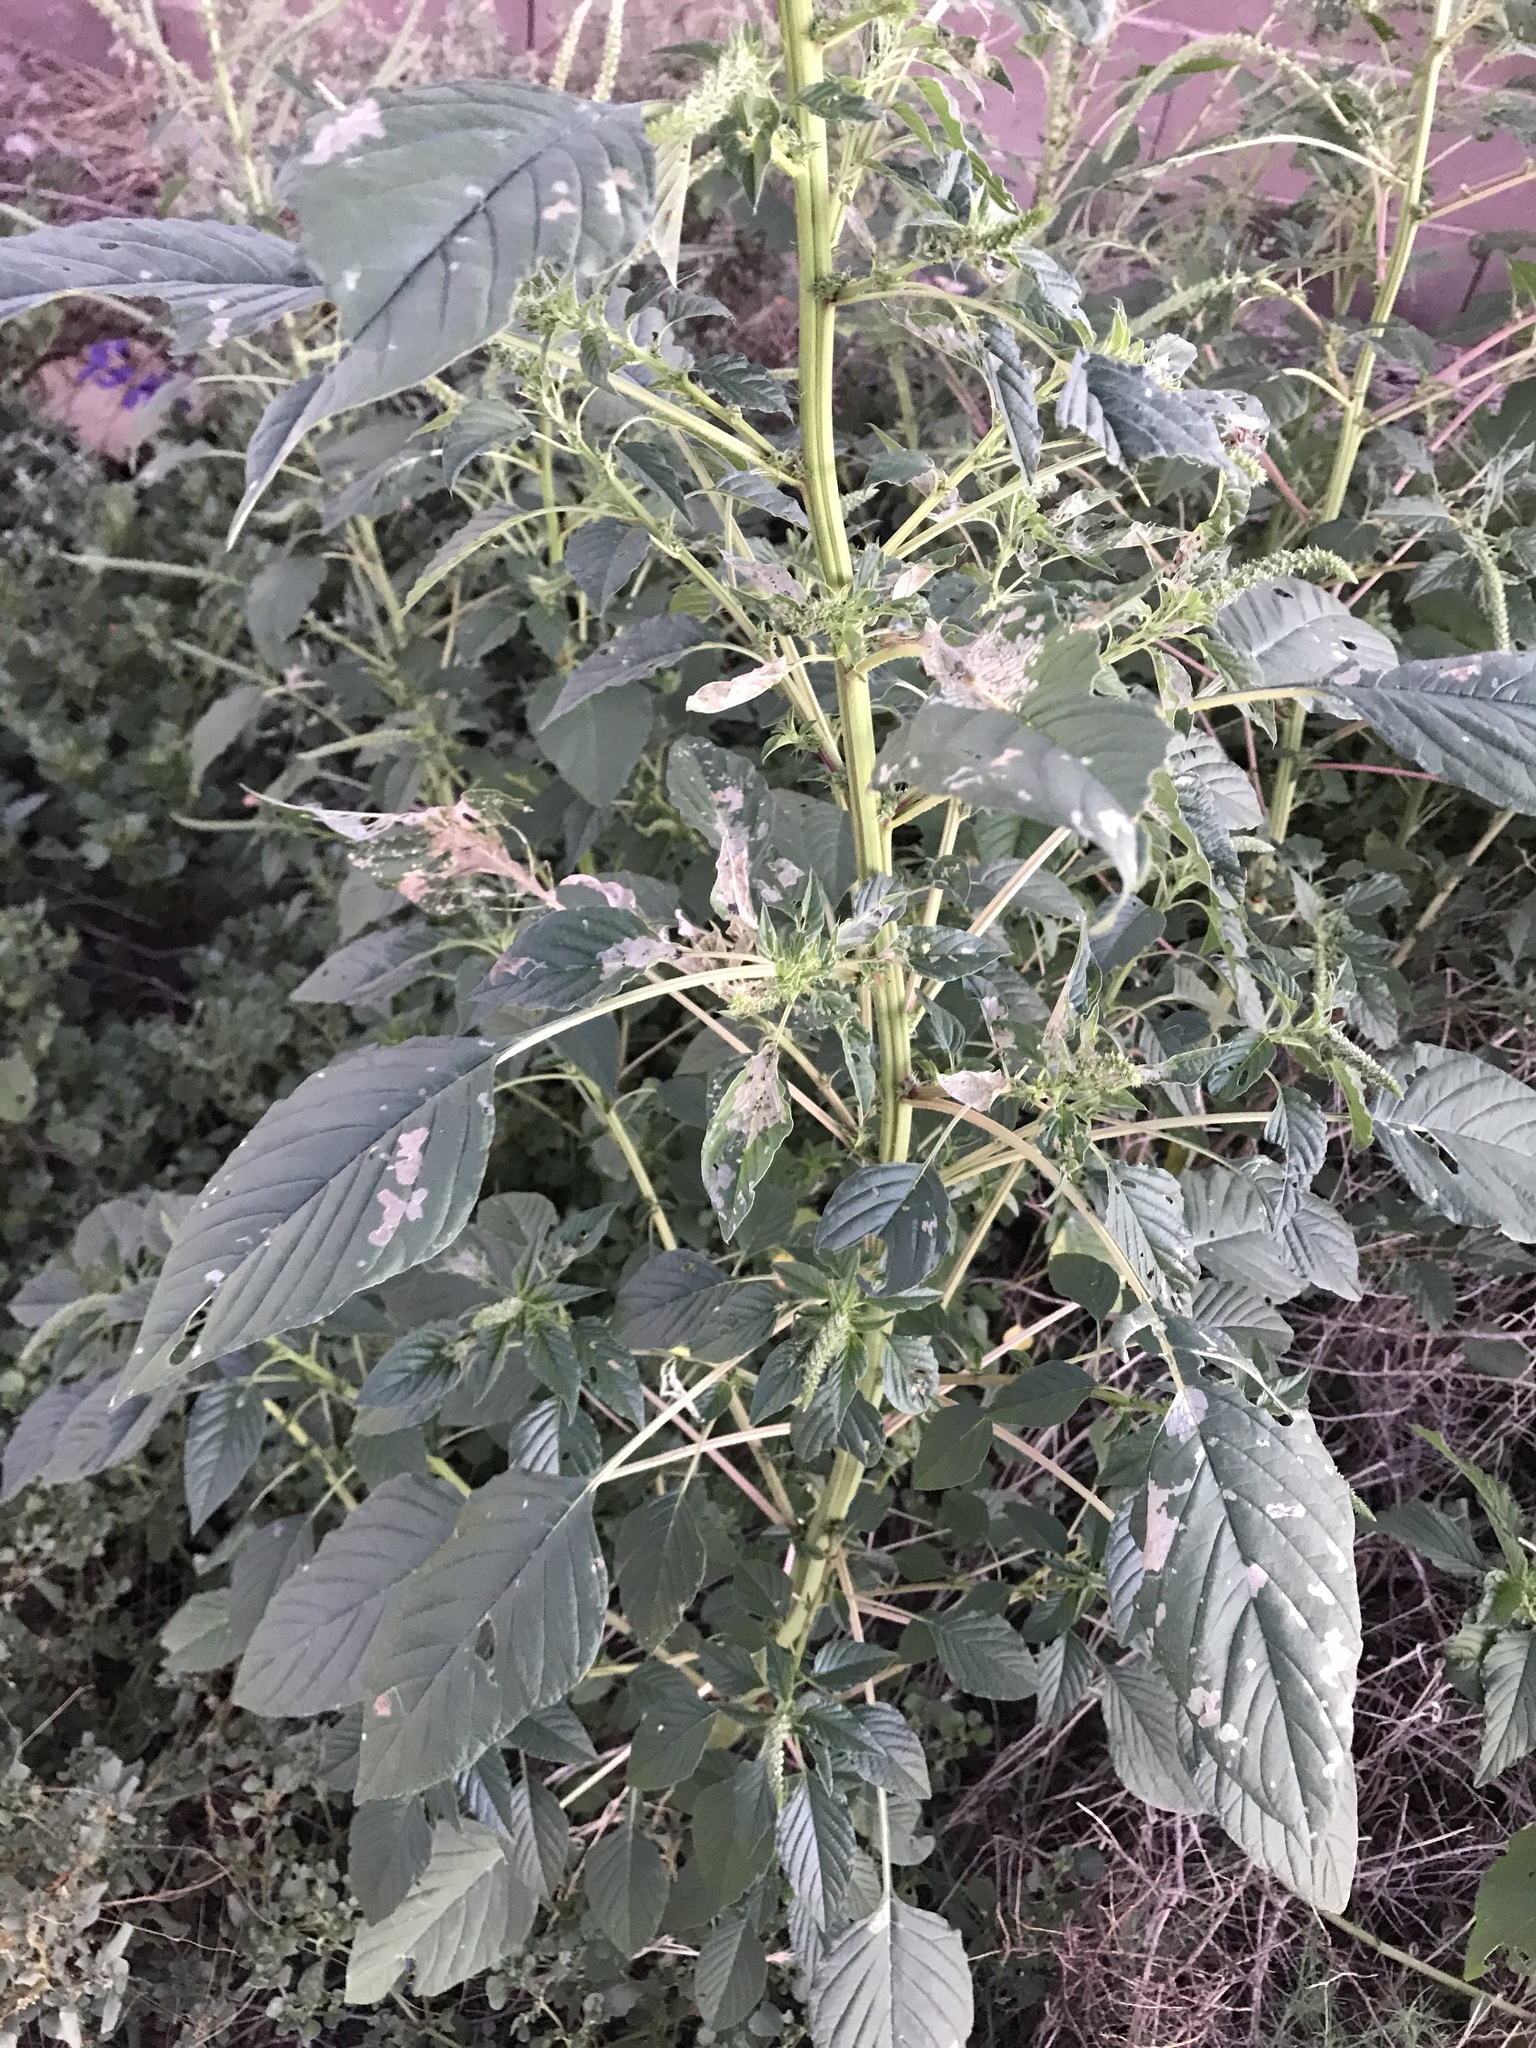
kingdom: Plantae
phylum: Tracheophyta
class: Magnoliopsida
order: Caryophyllales
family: Amaranthaceae
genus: Amaranthus
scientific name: Amaranthus palmeri
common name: Dioecious amaranth
